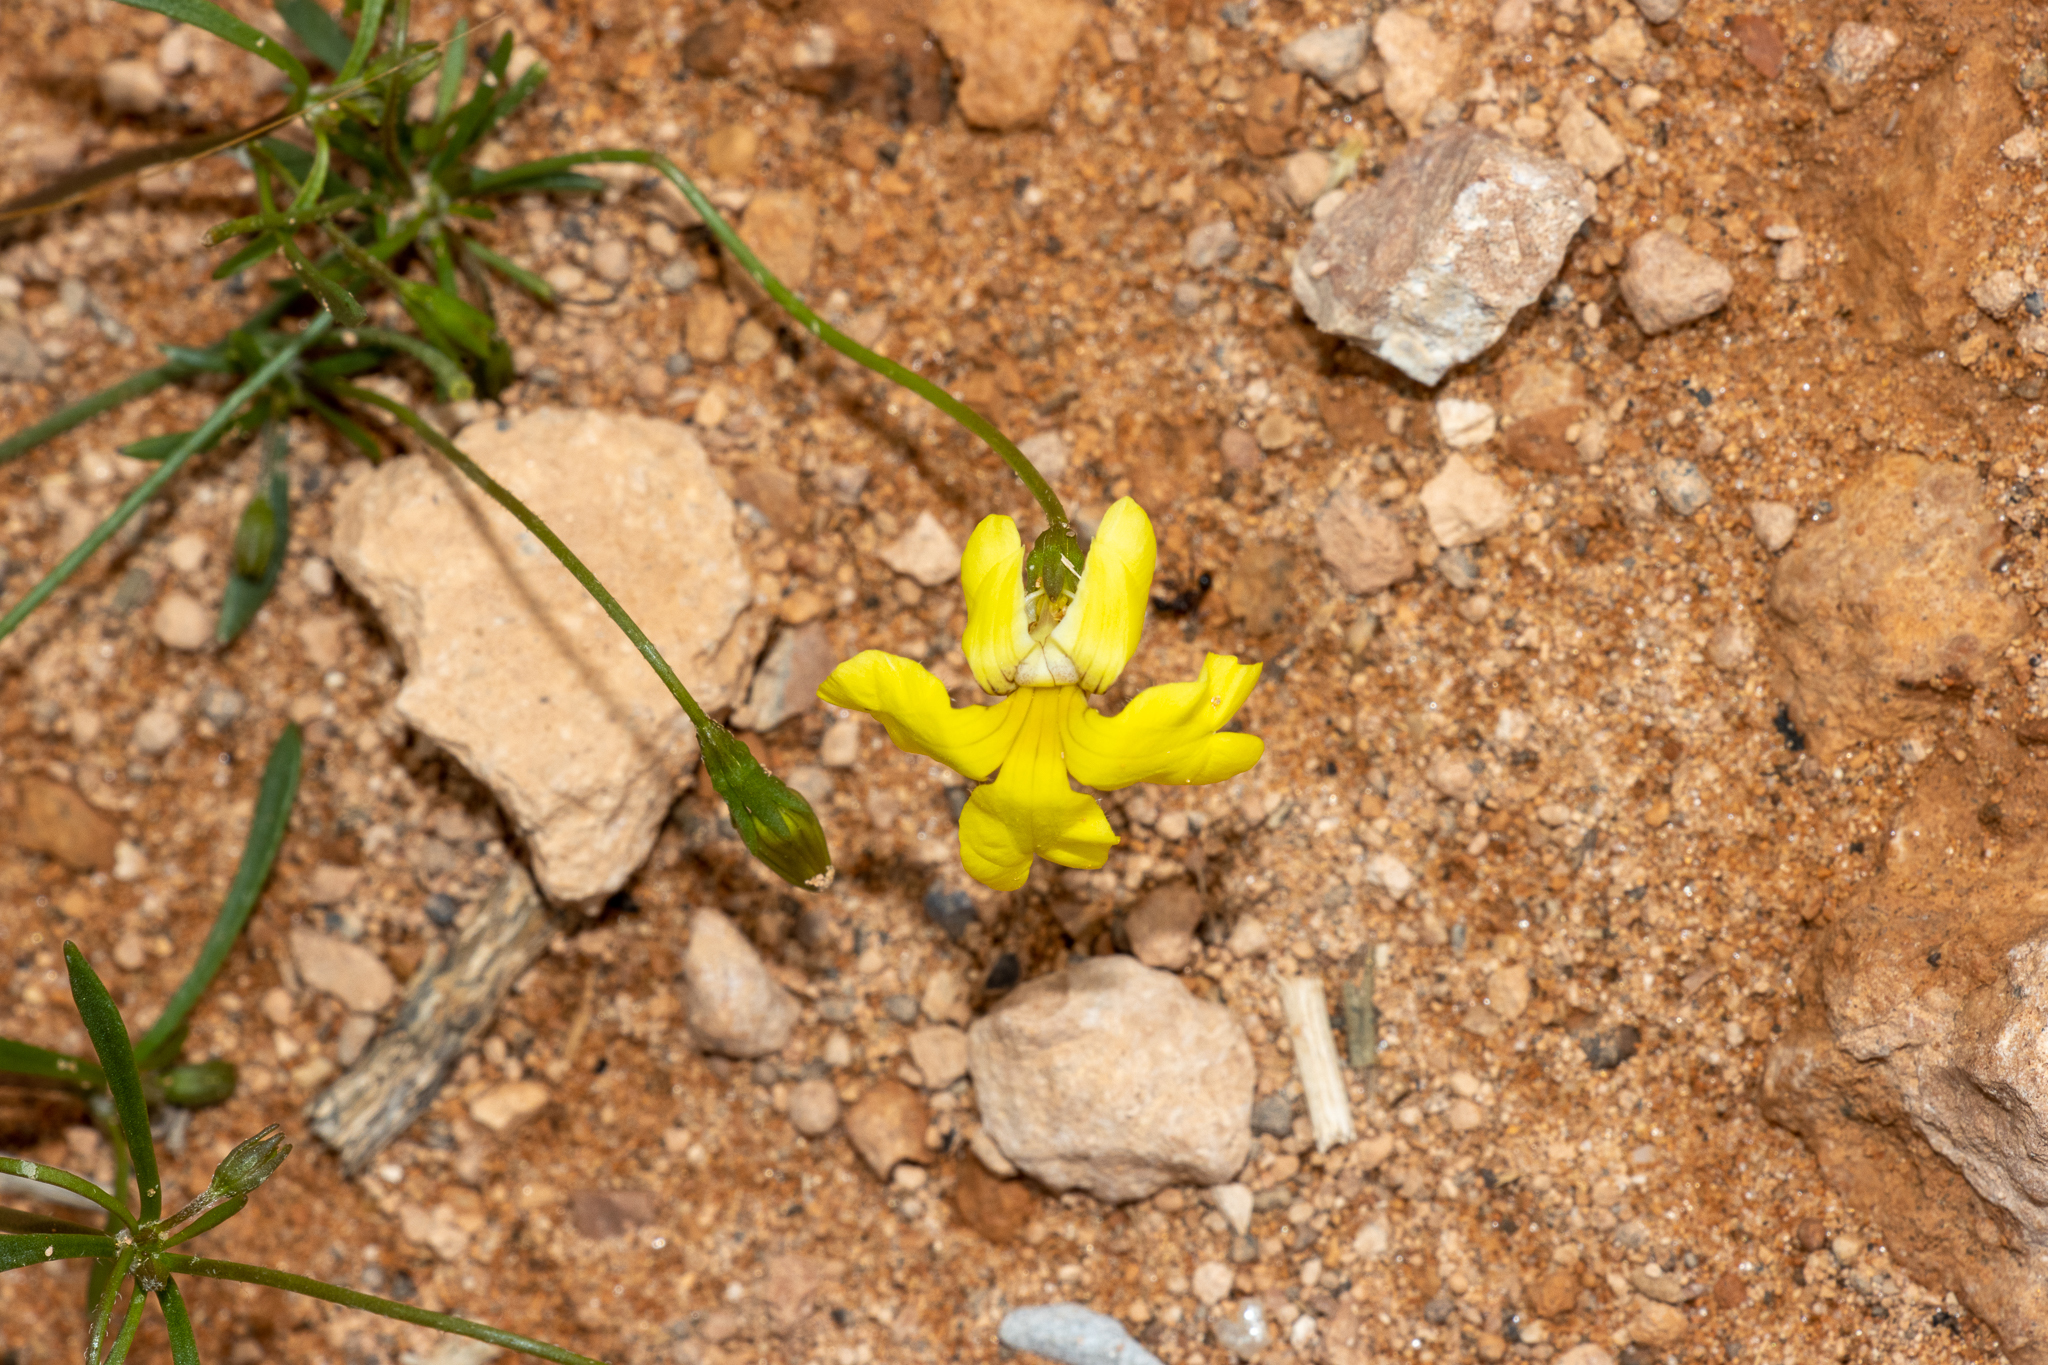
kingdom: Plantae
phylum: Tracheophyta
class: Magnoliopsida
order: Asterales
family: Goodeniaceae
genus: Goodenia
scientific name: Goodenia pinnatifida
